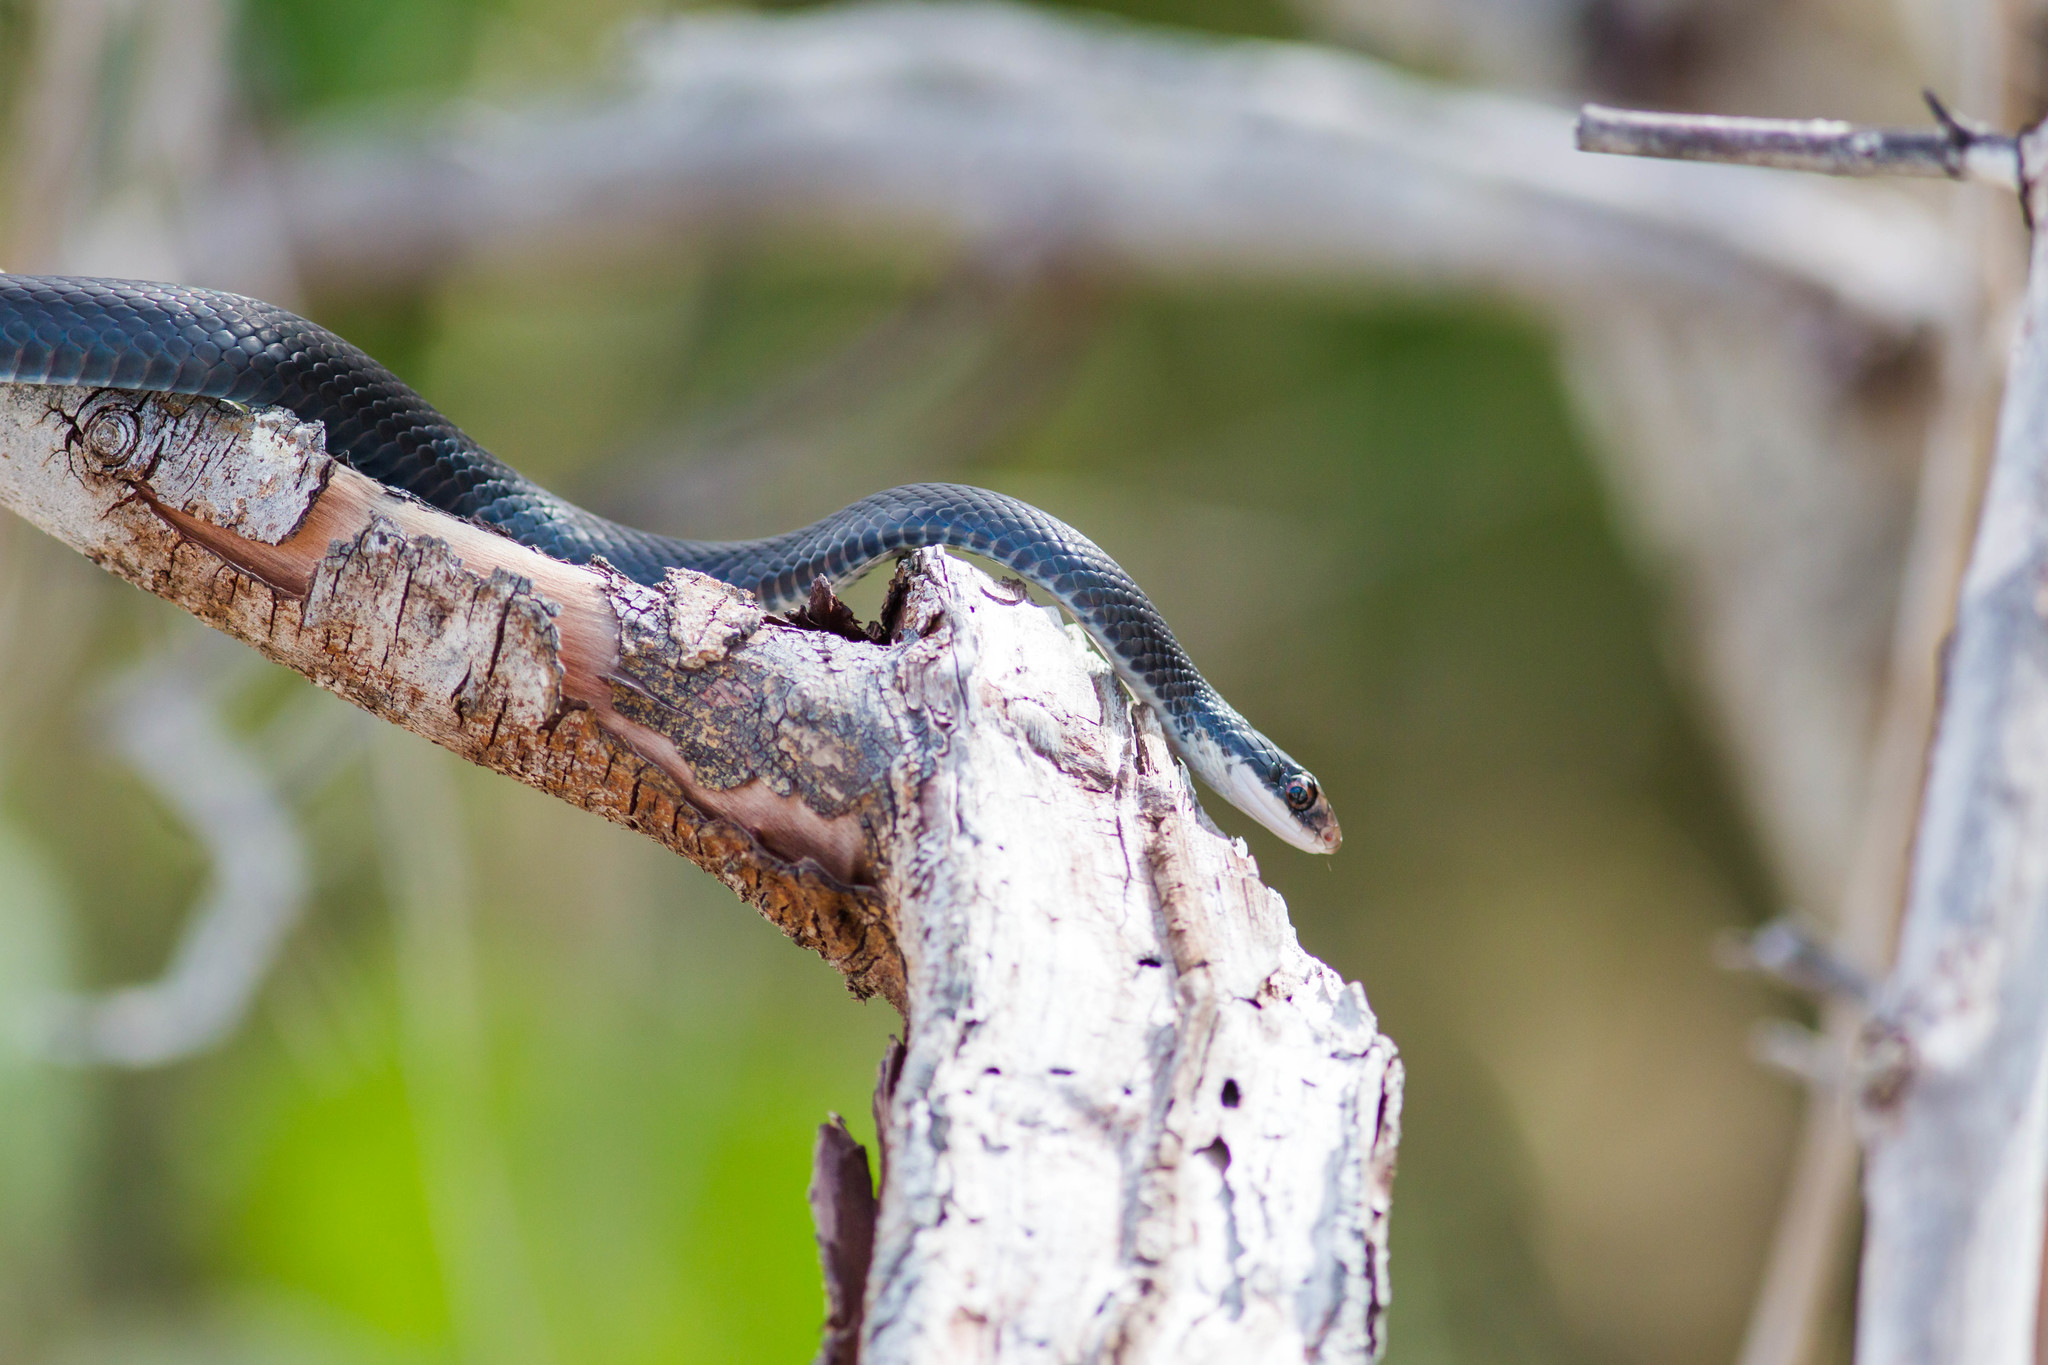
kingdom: Animalia
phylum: Chordata
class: Squamata
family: Colubridae
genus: Coluber
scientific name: Coluber constrictor
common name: Eastern racer
